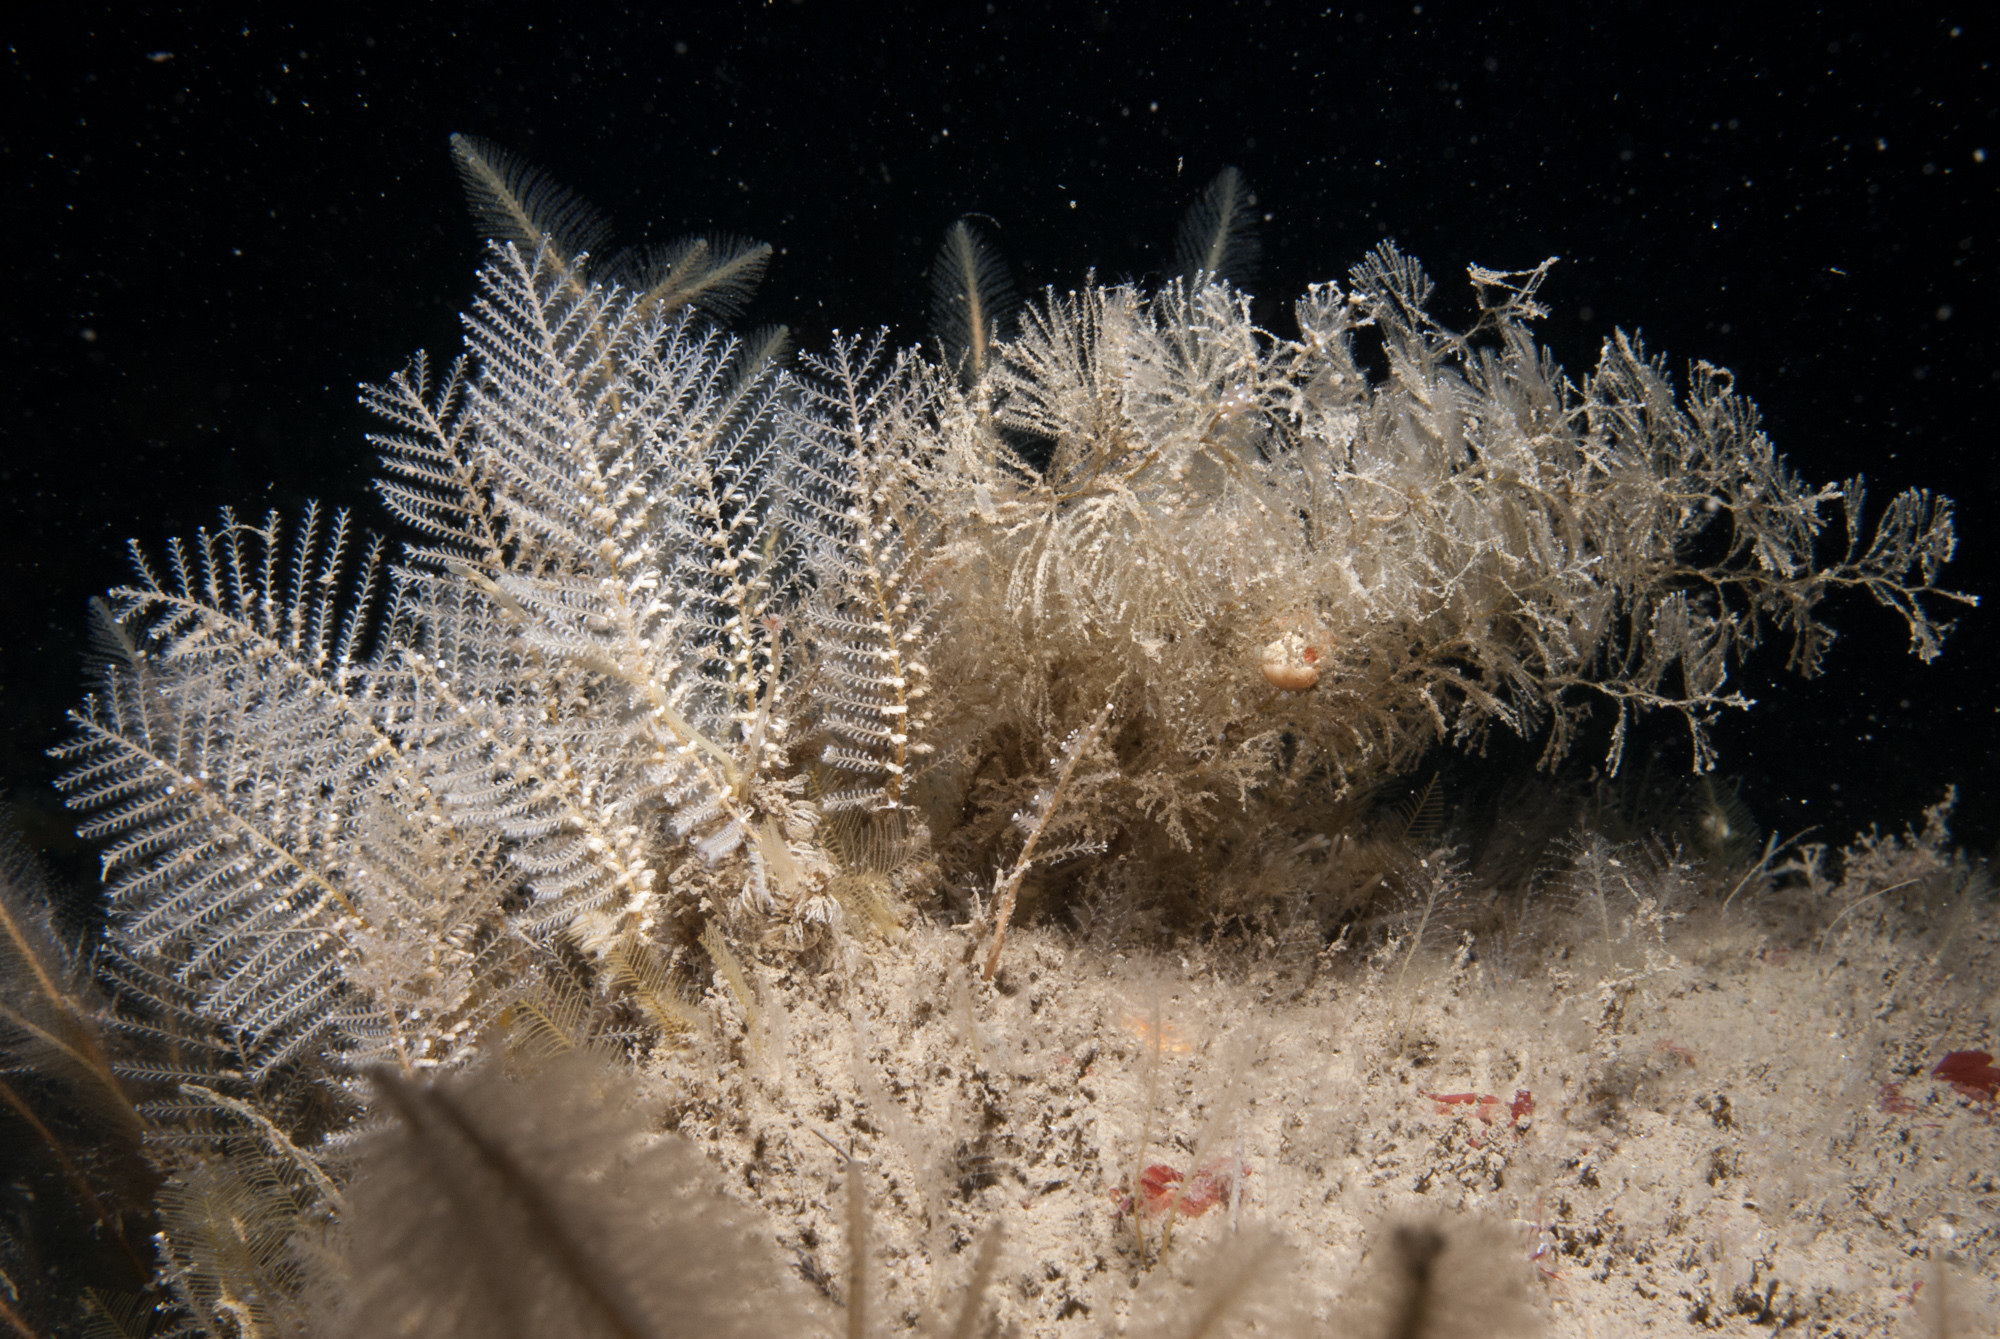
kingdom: Animalia
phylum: Cnidaria
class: Hydrozoa
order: Leptothecata
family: Sertulariidae
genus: Diphasia
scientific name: Diphasia margareta
